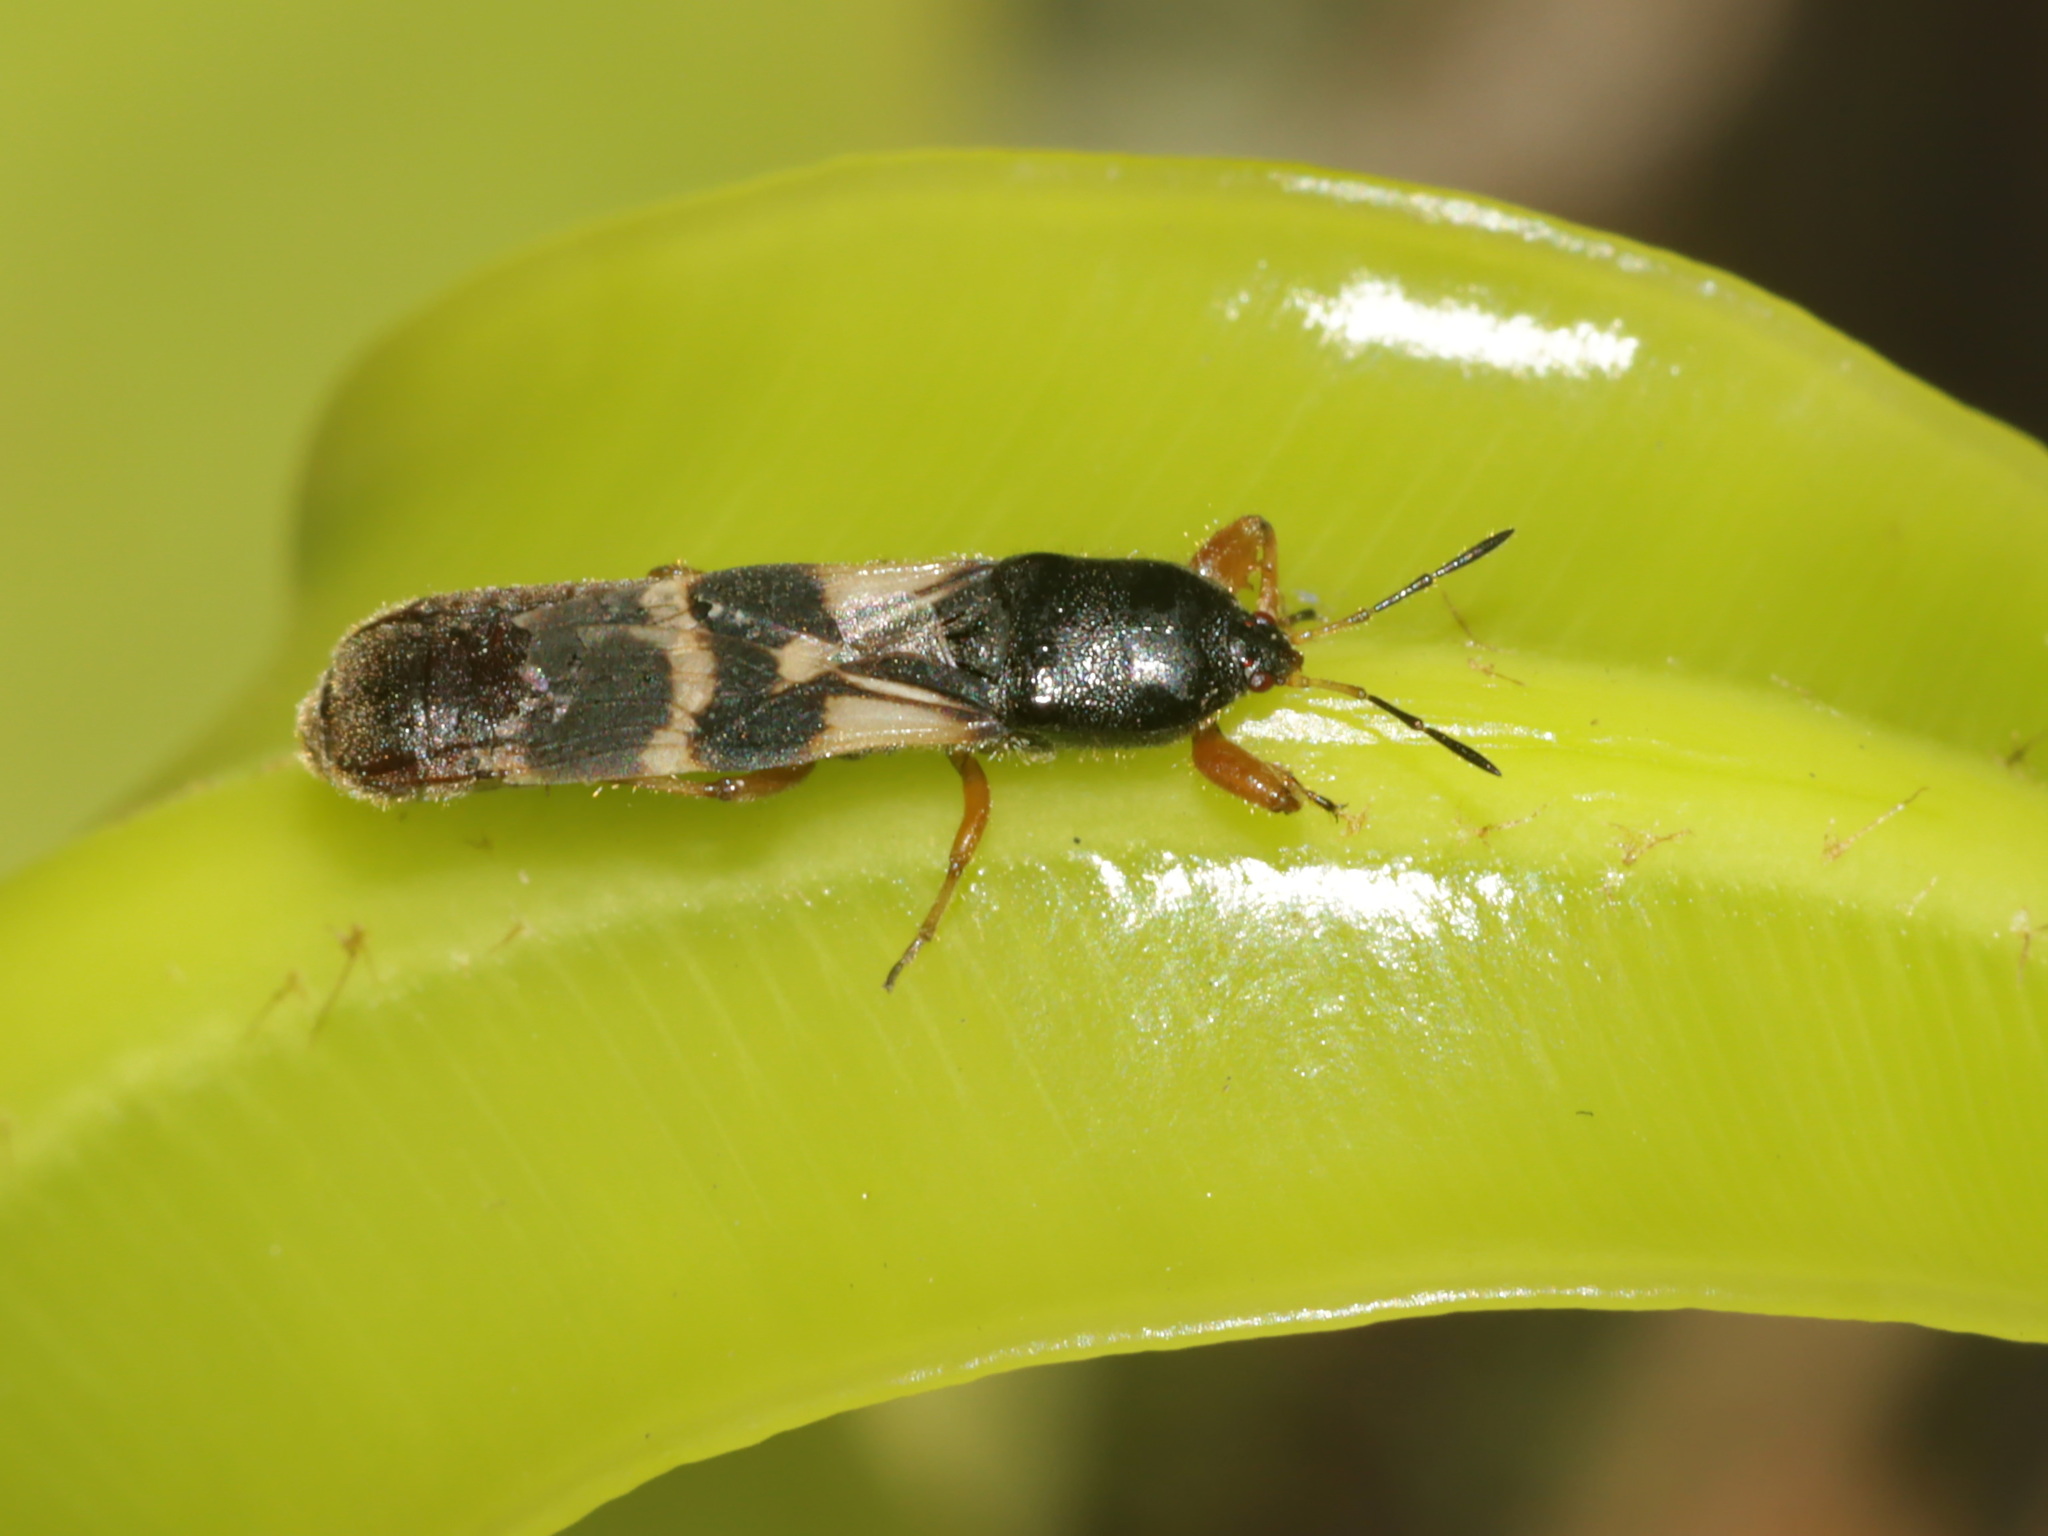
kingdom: Animalia
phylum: Arthropoda
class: Insecta
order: Hemiptera
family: Blissidae
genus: Macropes
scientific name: Macropes varipennis
